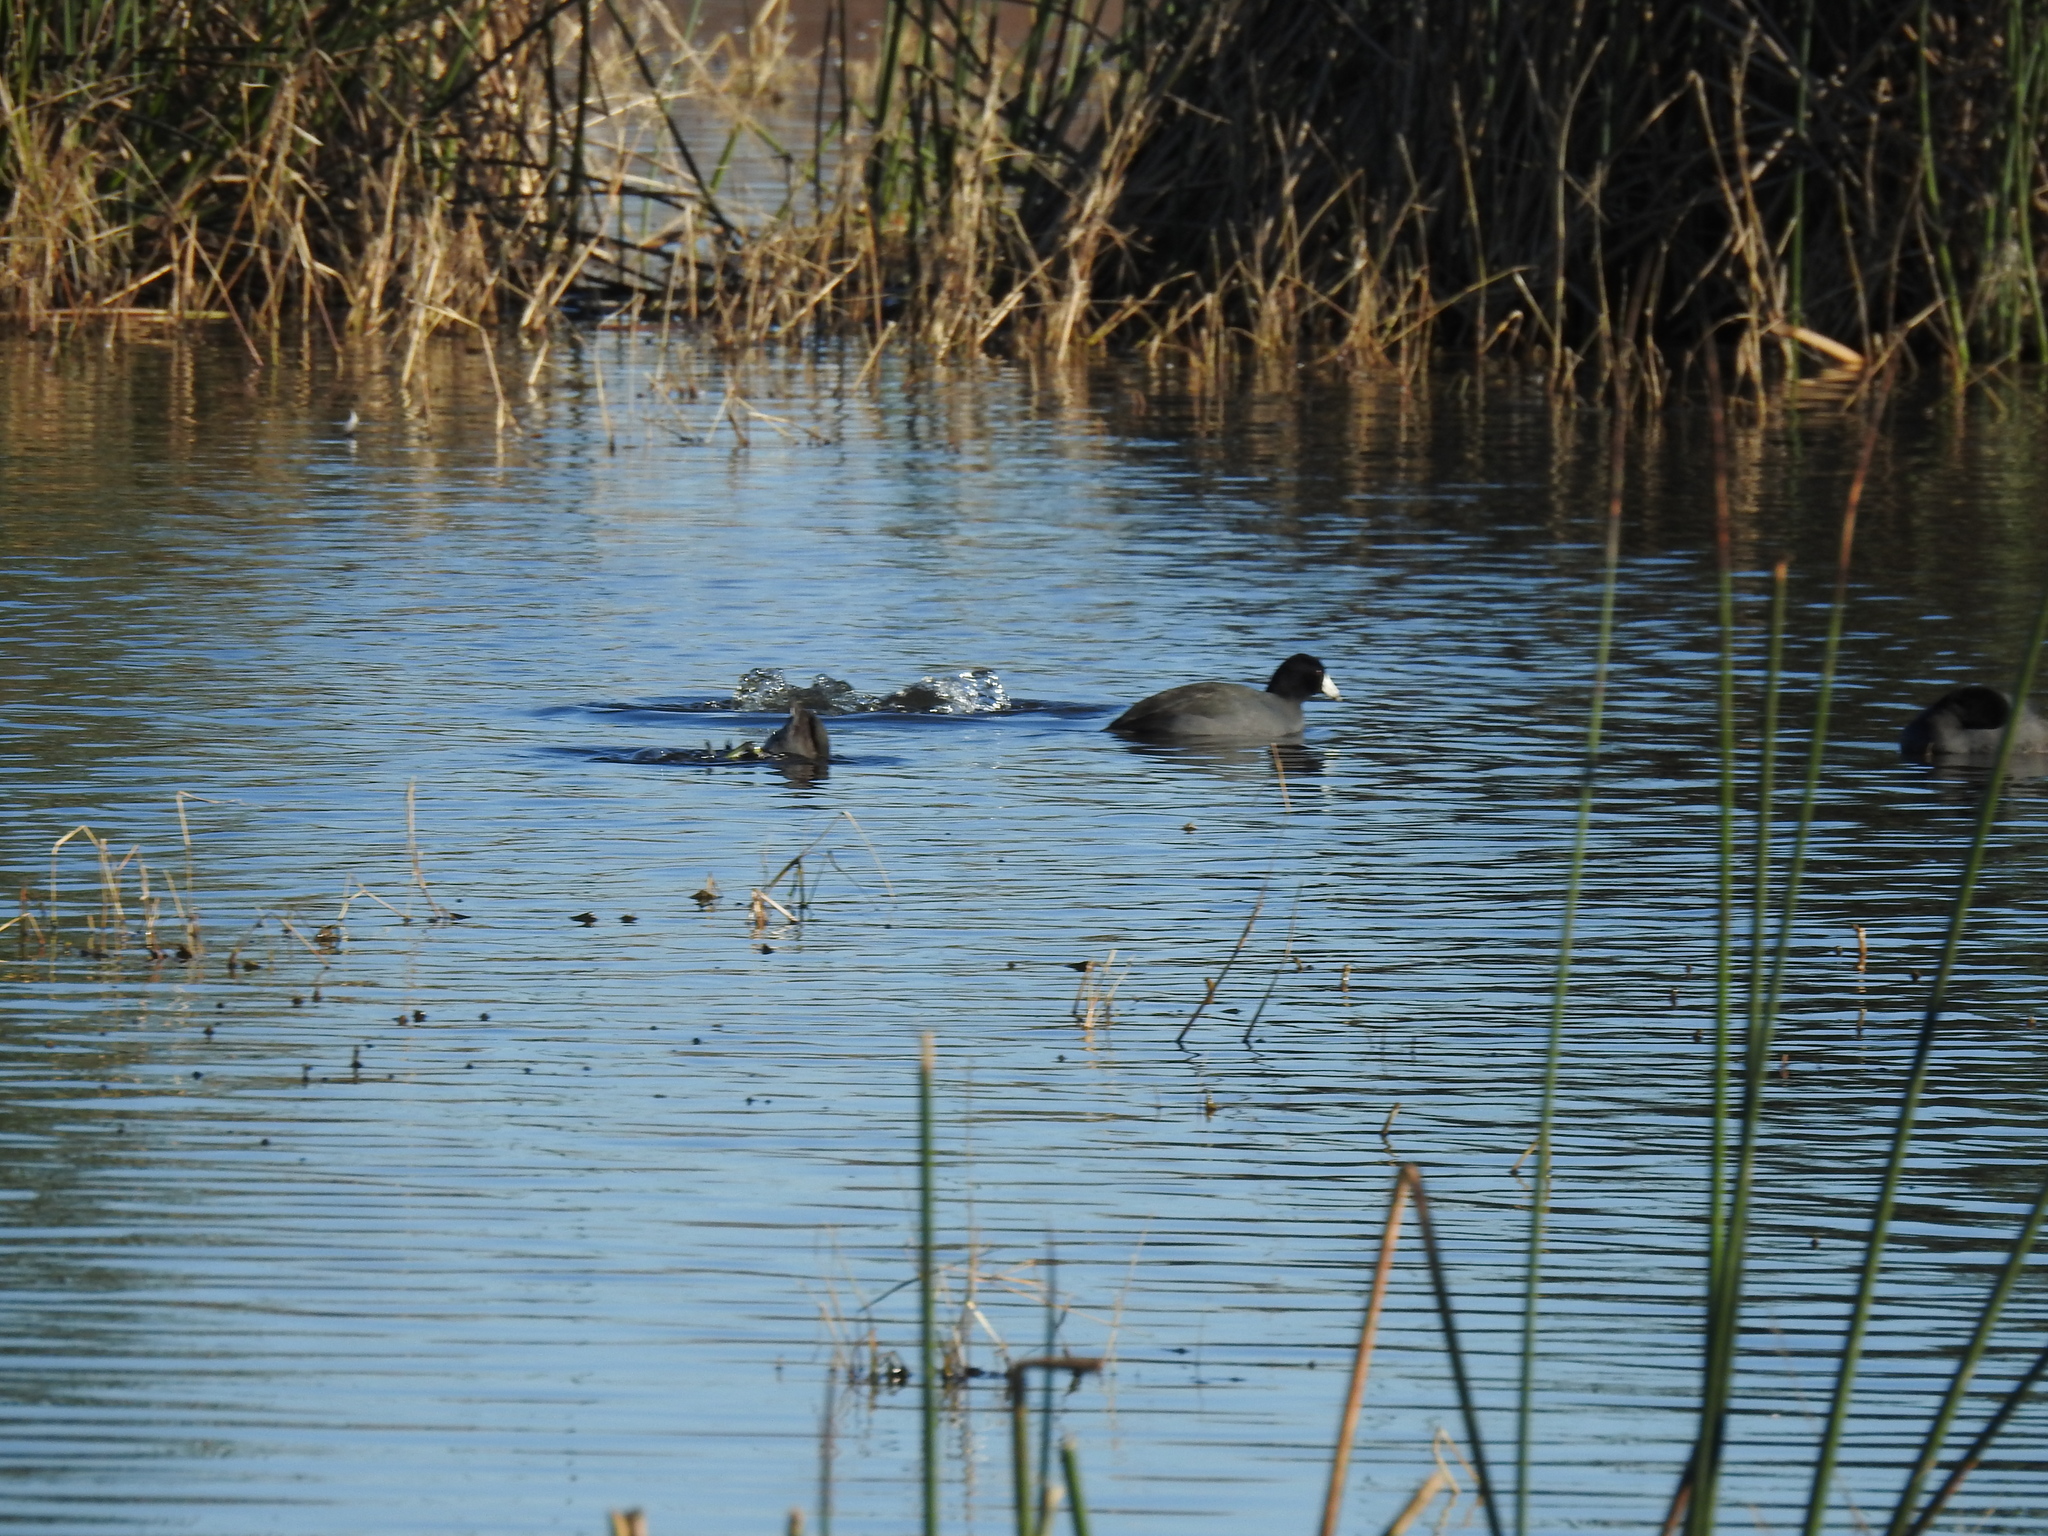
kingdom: Animalia
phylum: Chordata
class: Aves
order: Gruiformes
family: Rallidae
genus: Fulica
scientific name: Fulica americana
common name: American coot
